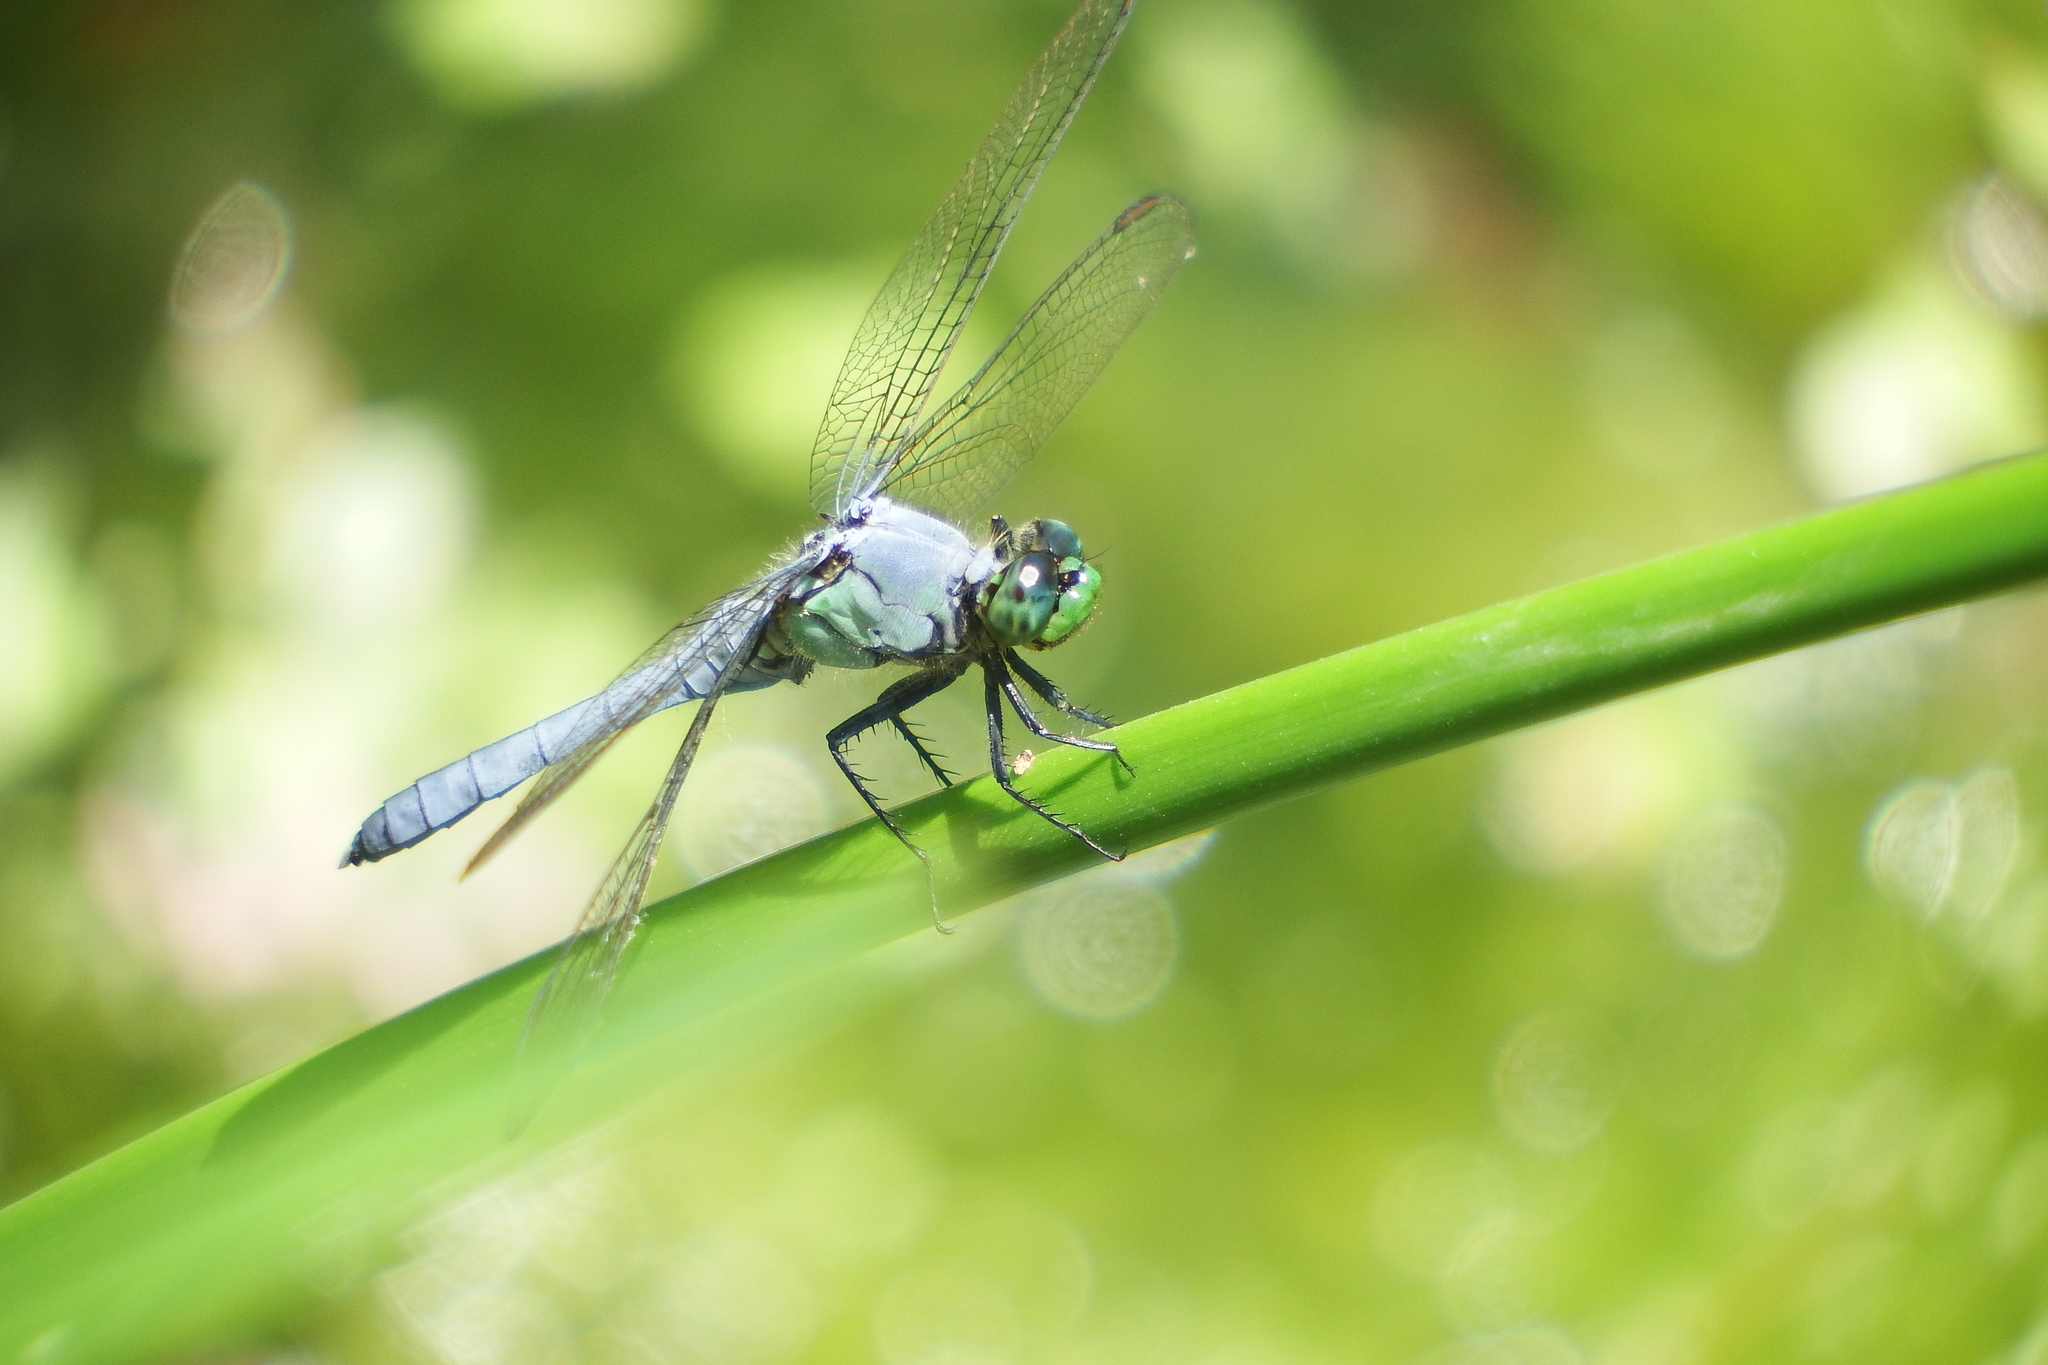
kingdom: Animalia
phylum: Arthropoda
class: Insecta
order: Odonata
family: Libellulidae
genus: Erythemis
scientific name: Erythemis simplicicollis
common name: Eastern pondhawk
